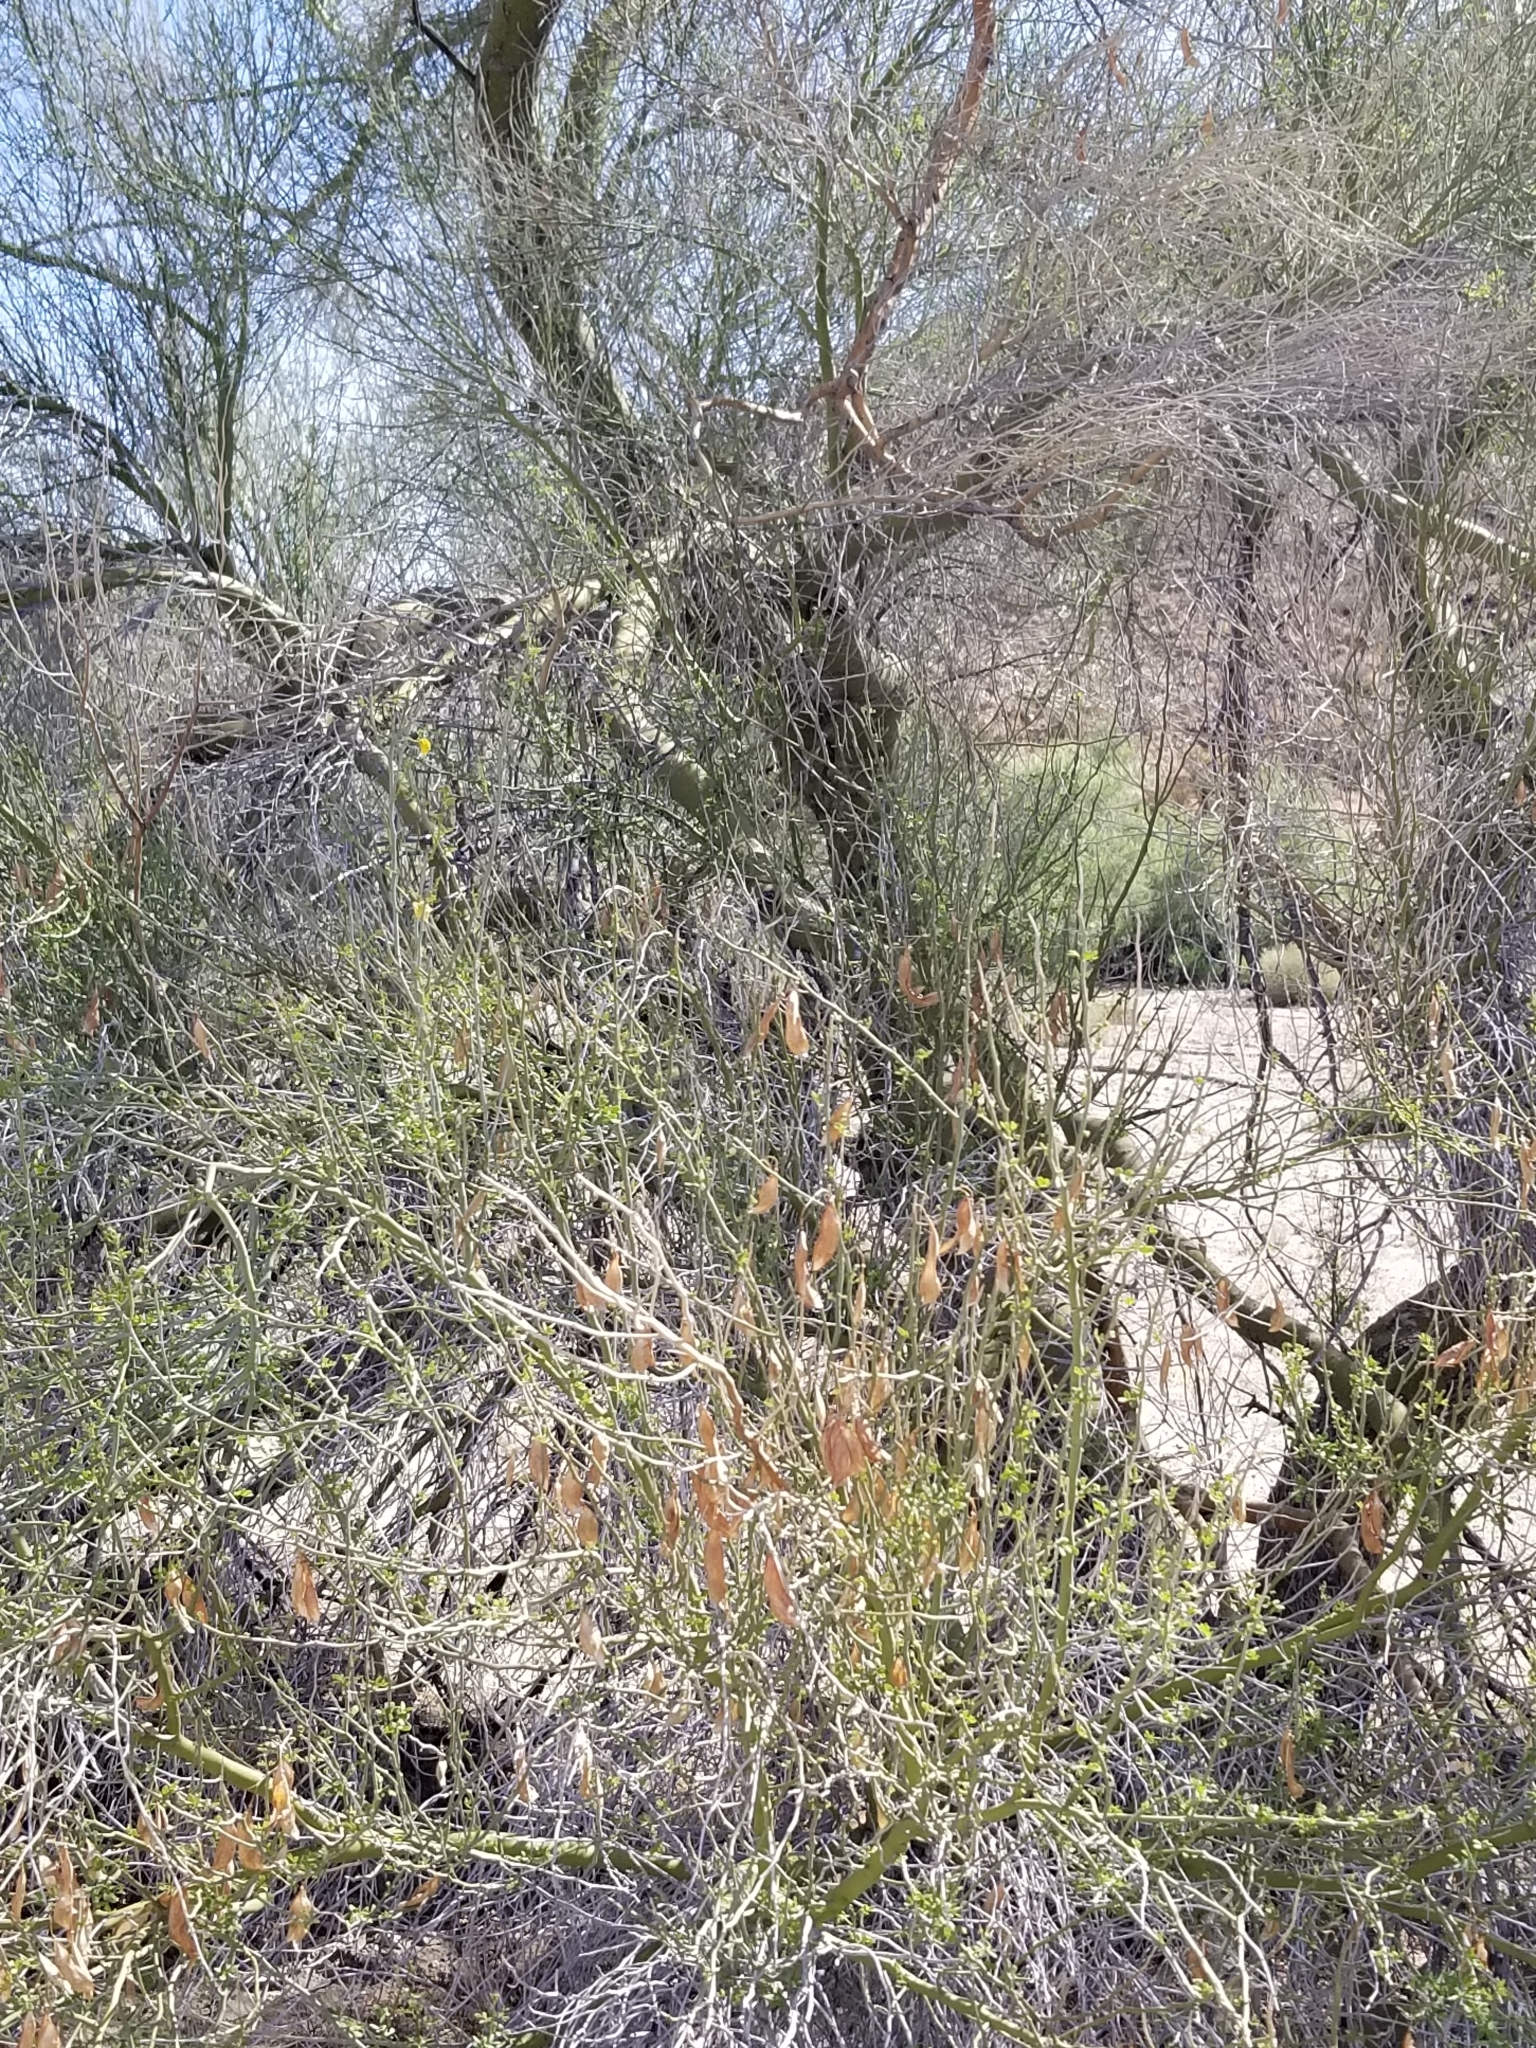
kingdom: Plantae
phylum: Tracheophyta
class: Magnoliopsida
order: Fabales
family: Fabaceae
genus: Parkinsonia
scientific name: Parkinsonia florida
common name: Blue paloverde
